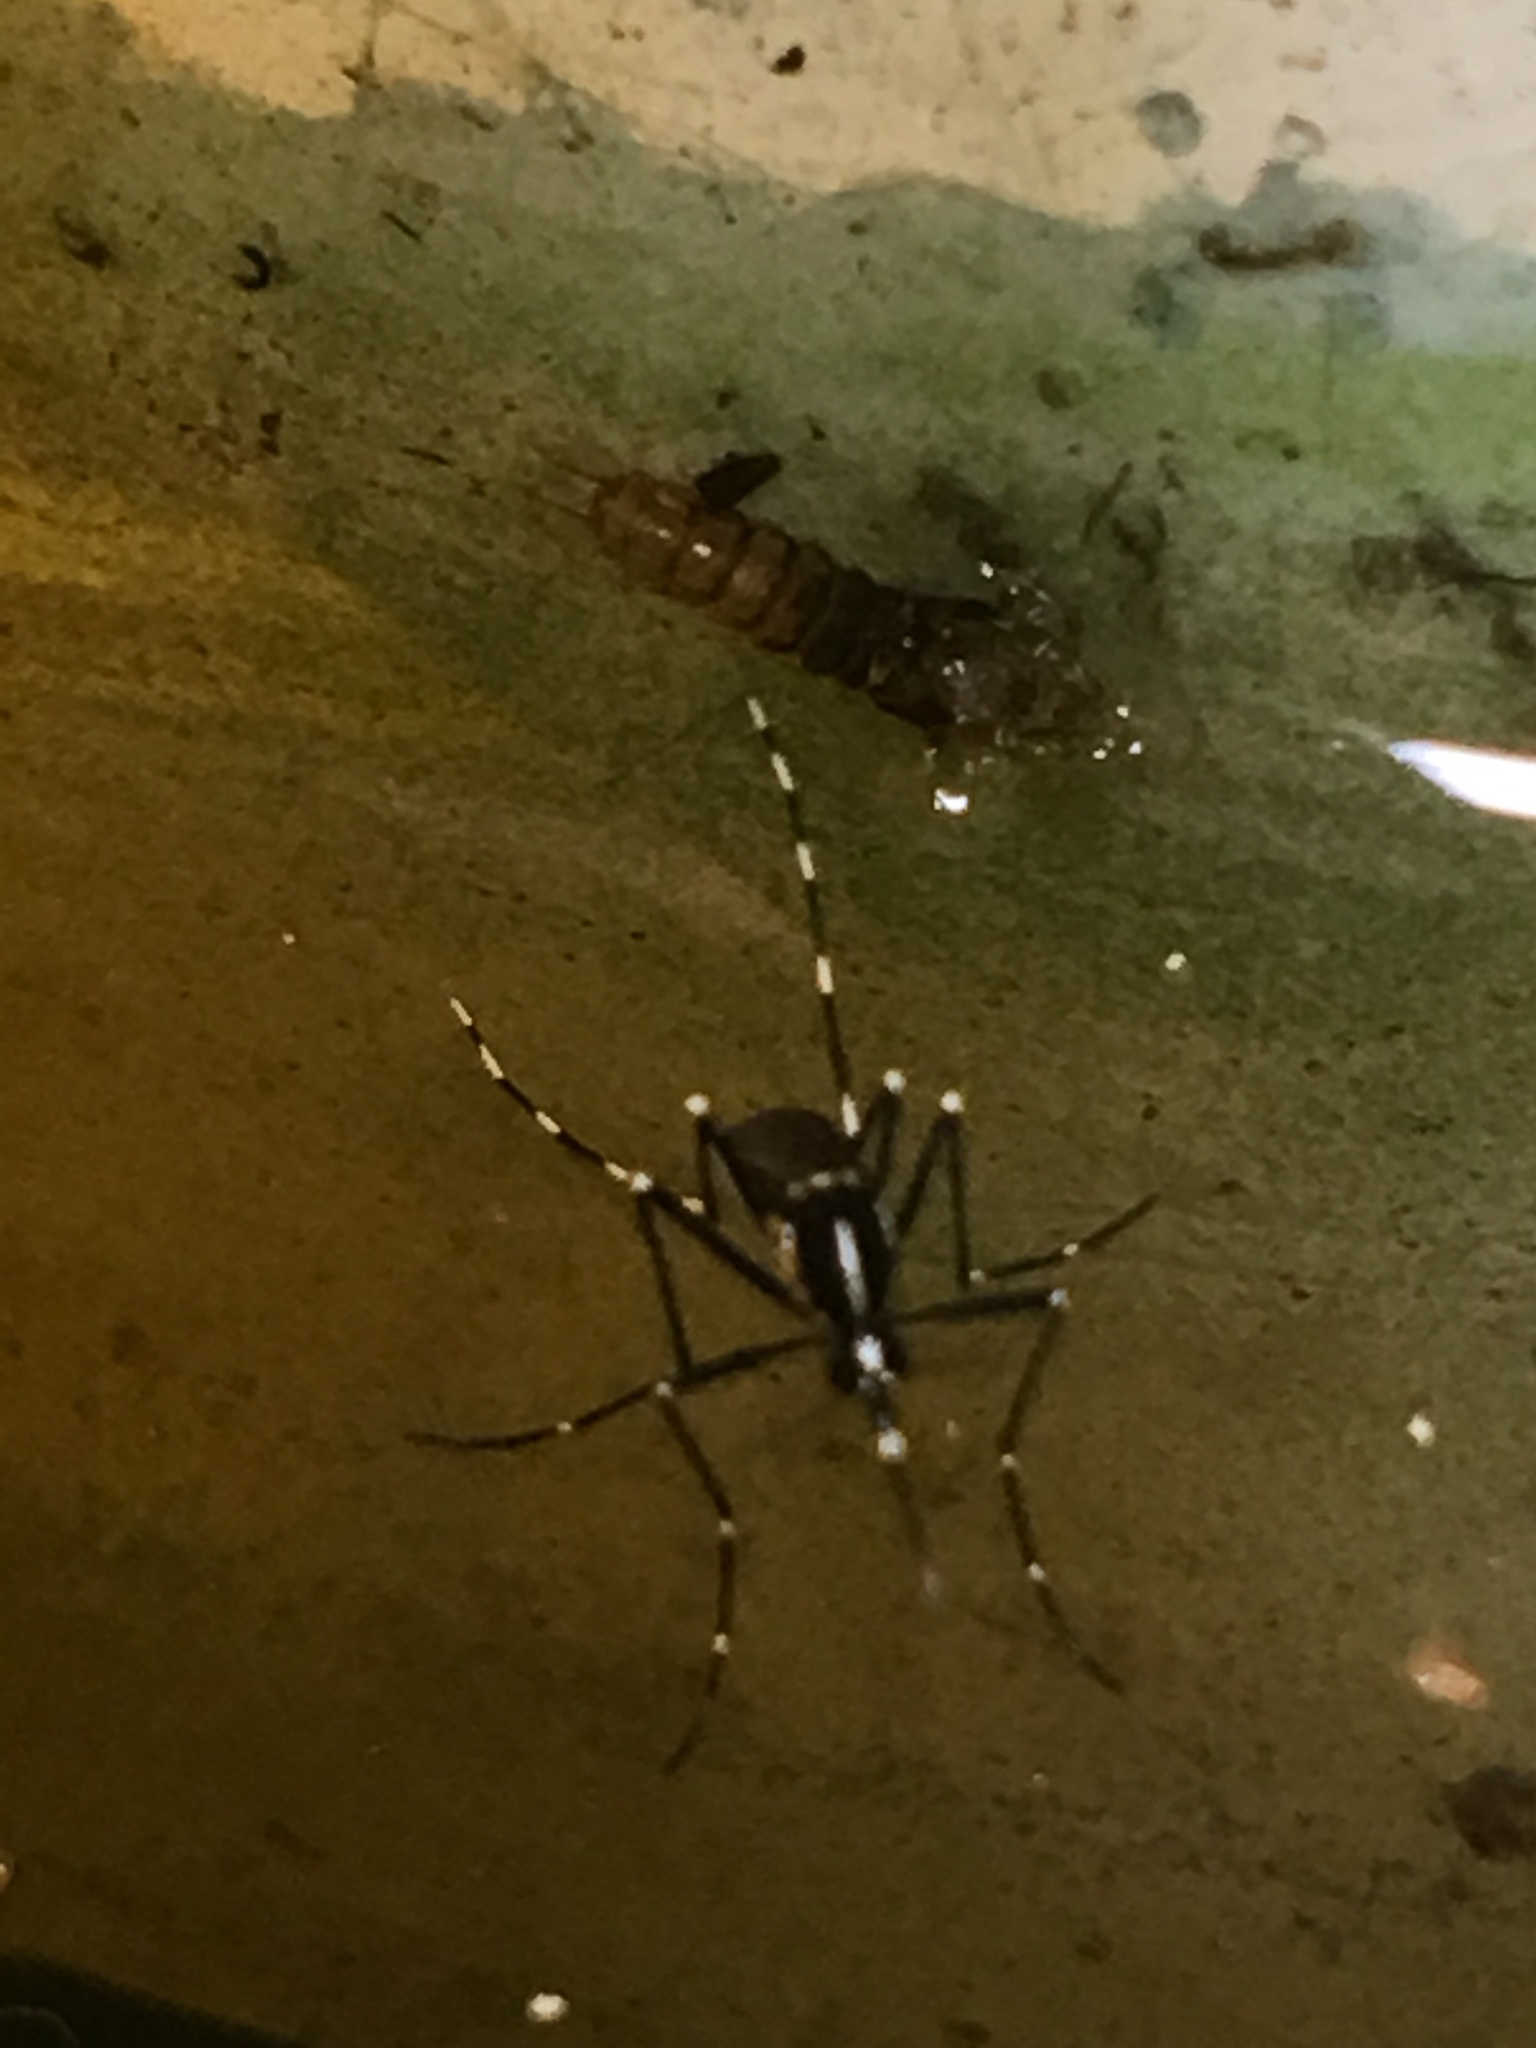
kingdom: Animalia
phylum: Arthropoda
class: Insecta
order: Diptera
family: Culicidae
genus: Aedes
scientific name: Aedes albopictus
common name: Tiger mosquito
